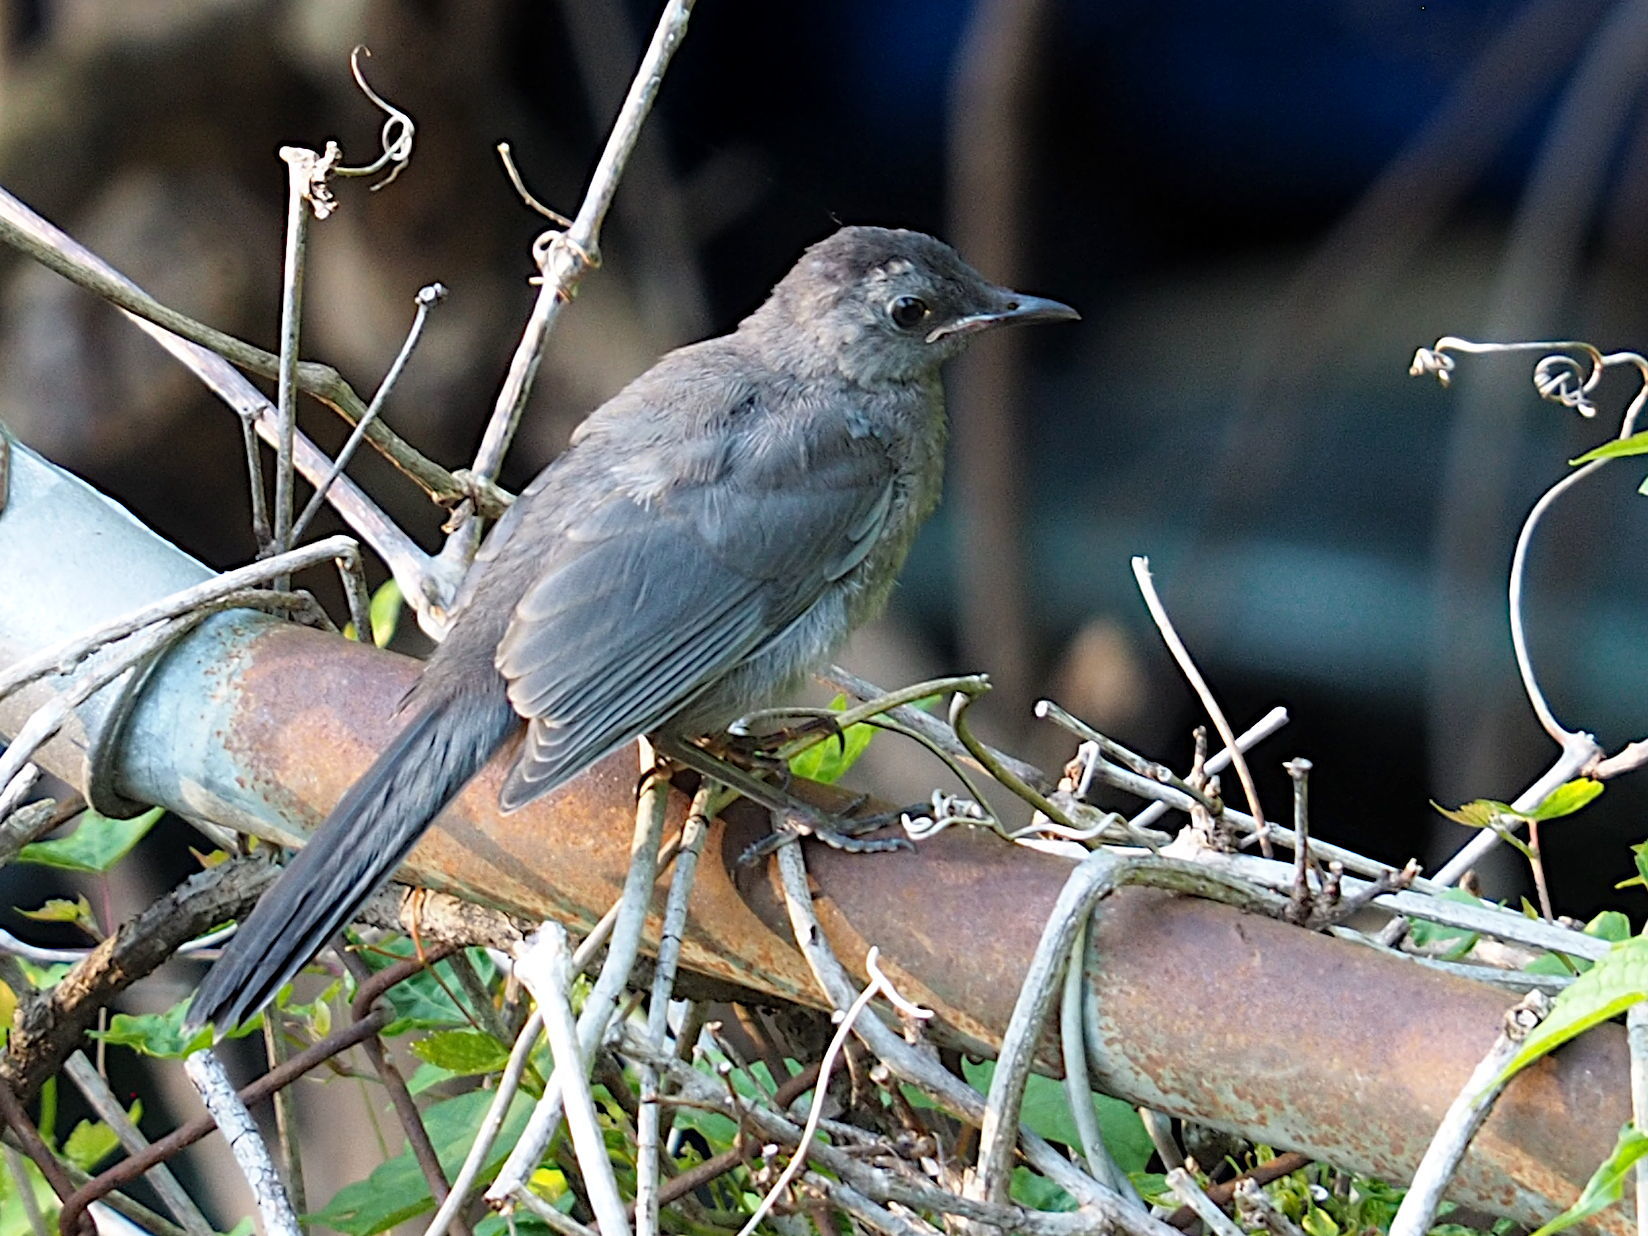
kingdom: Animalia
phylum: Chordata
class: Aves
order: Passeriformes
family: Mimidae
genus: Dumetella
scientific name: Dumetella carolinensis
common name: Gray catbird
